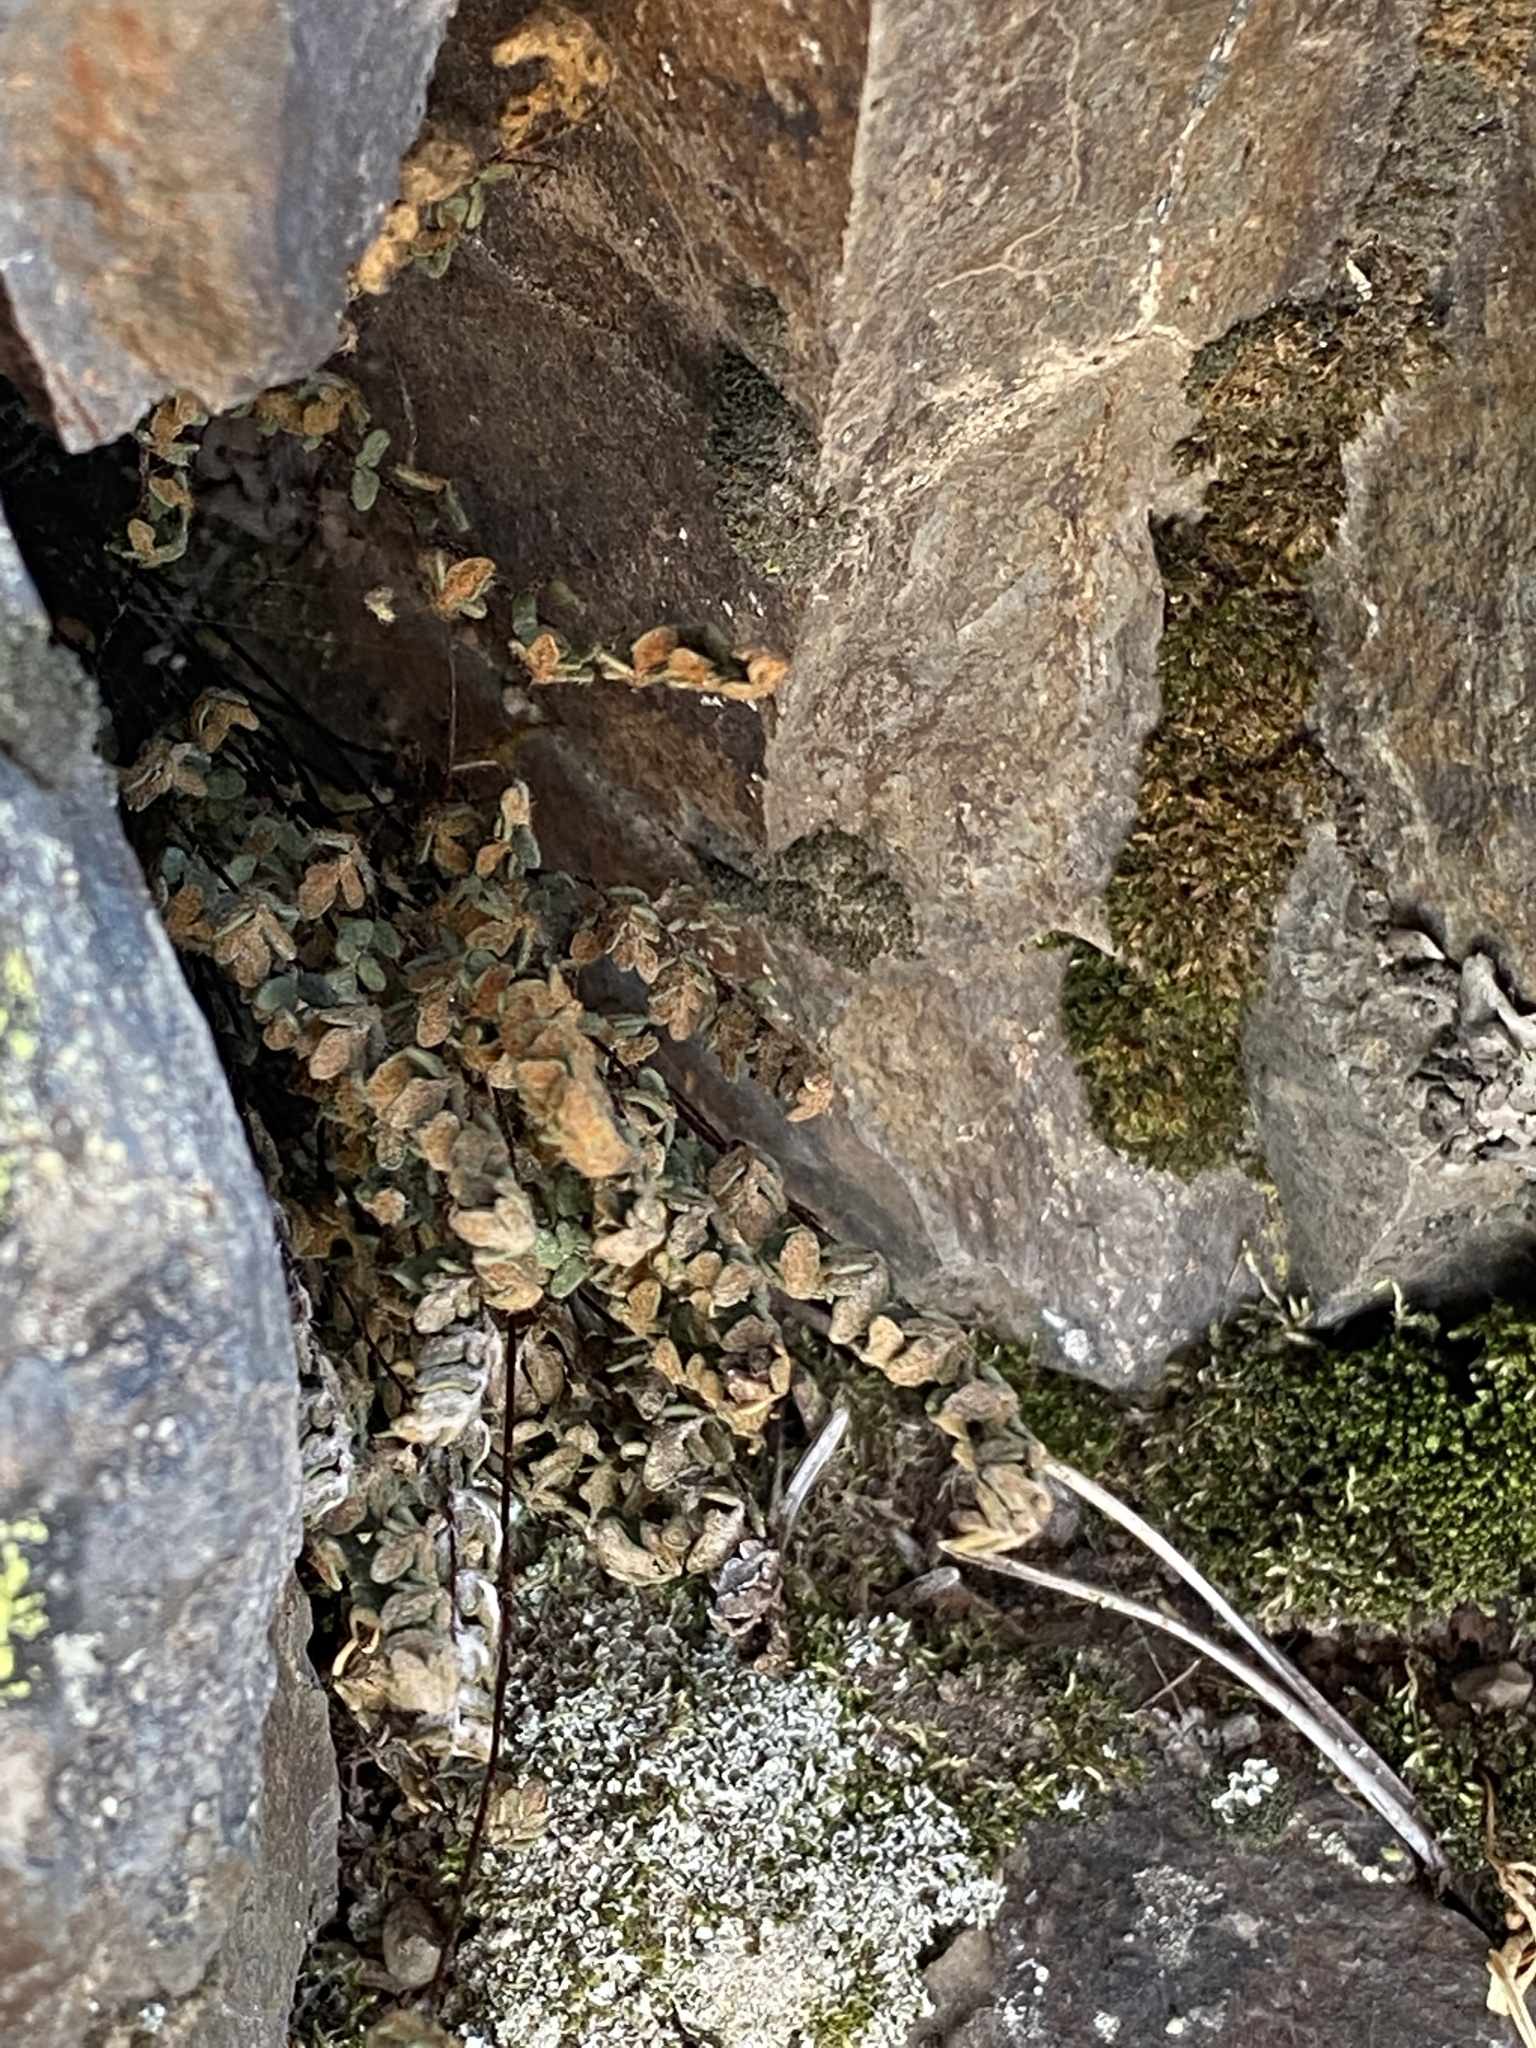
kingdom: Plantae
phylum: Tracheophyta
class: Polypodiopsida
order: Polypodiales
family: Pteridaceae
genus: Myriopteris
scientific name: Myriopteris gracillima
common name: Lace fern
